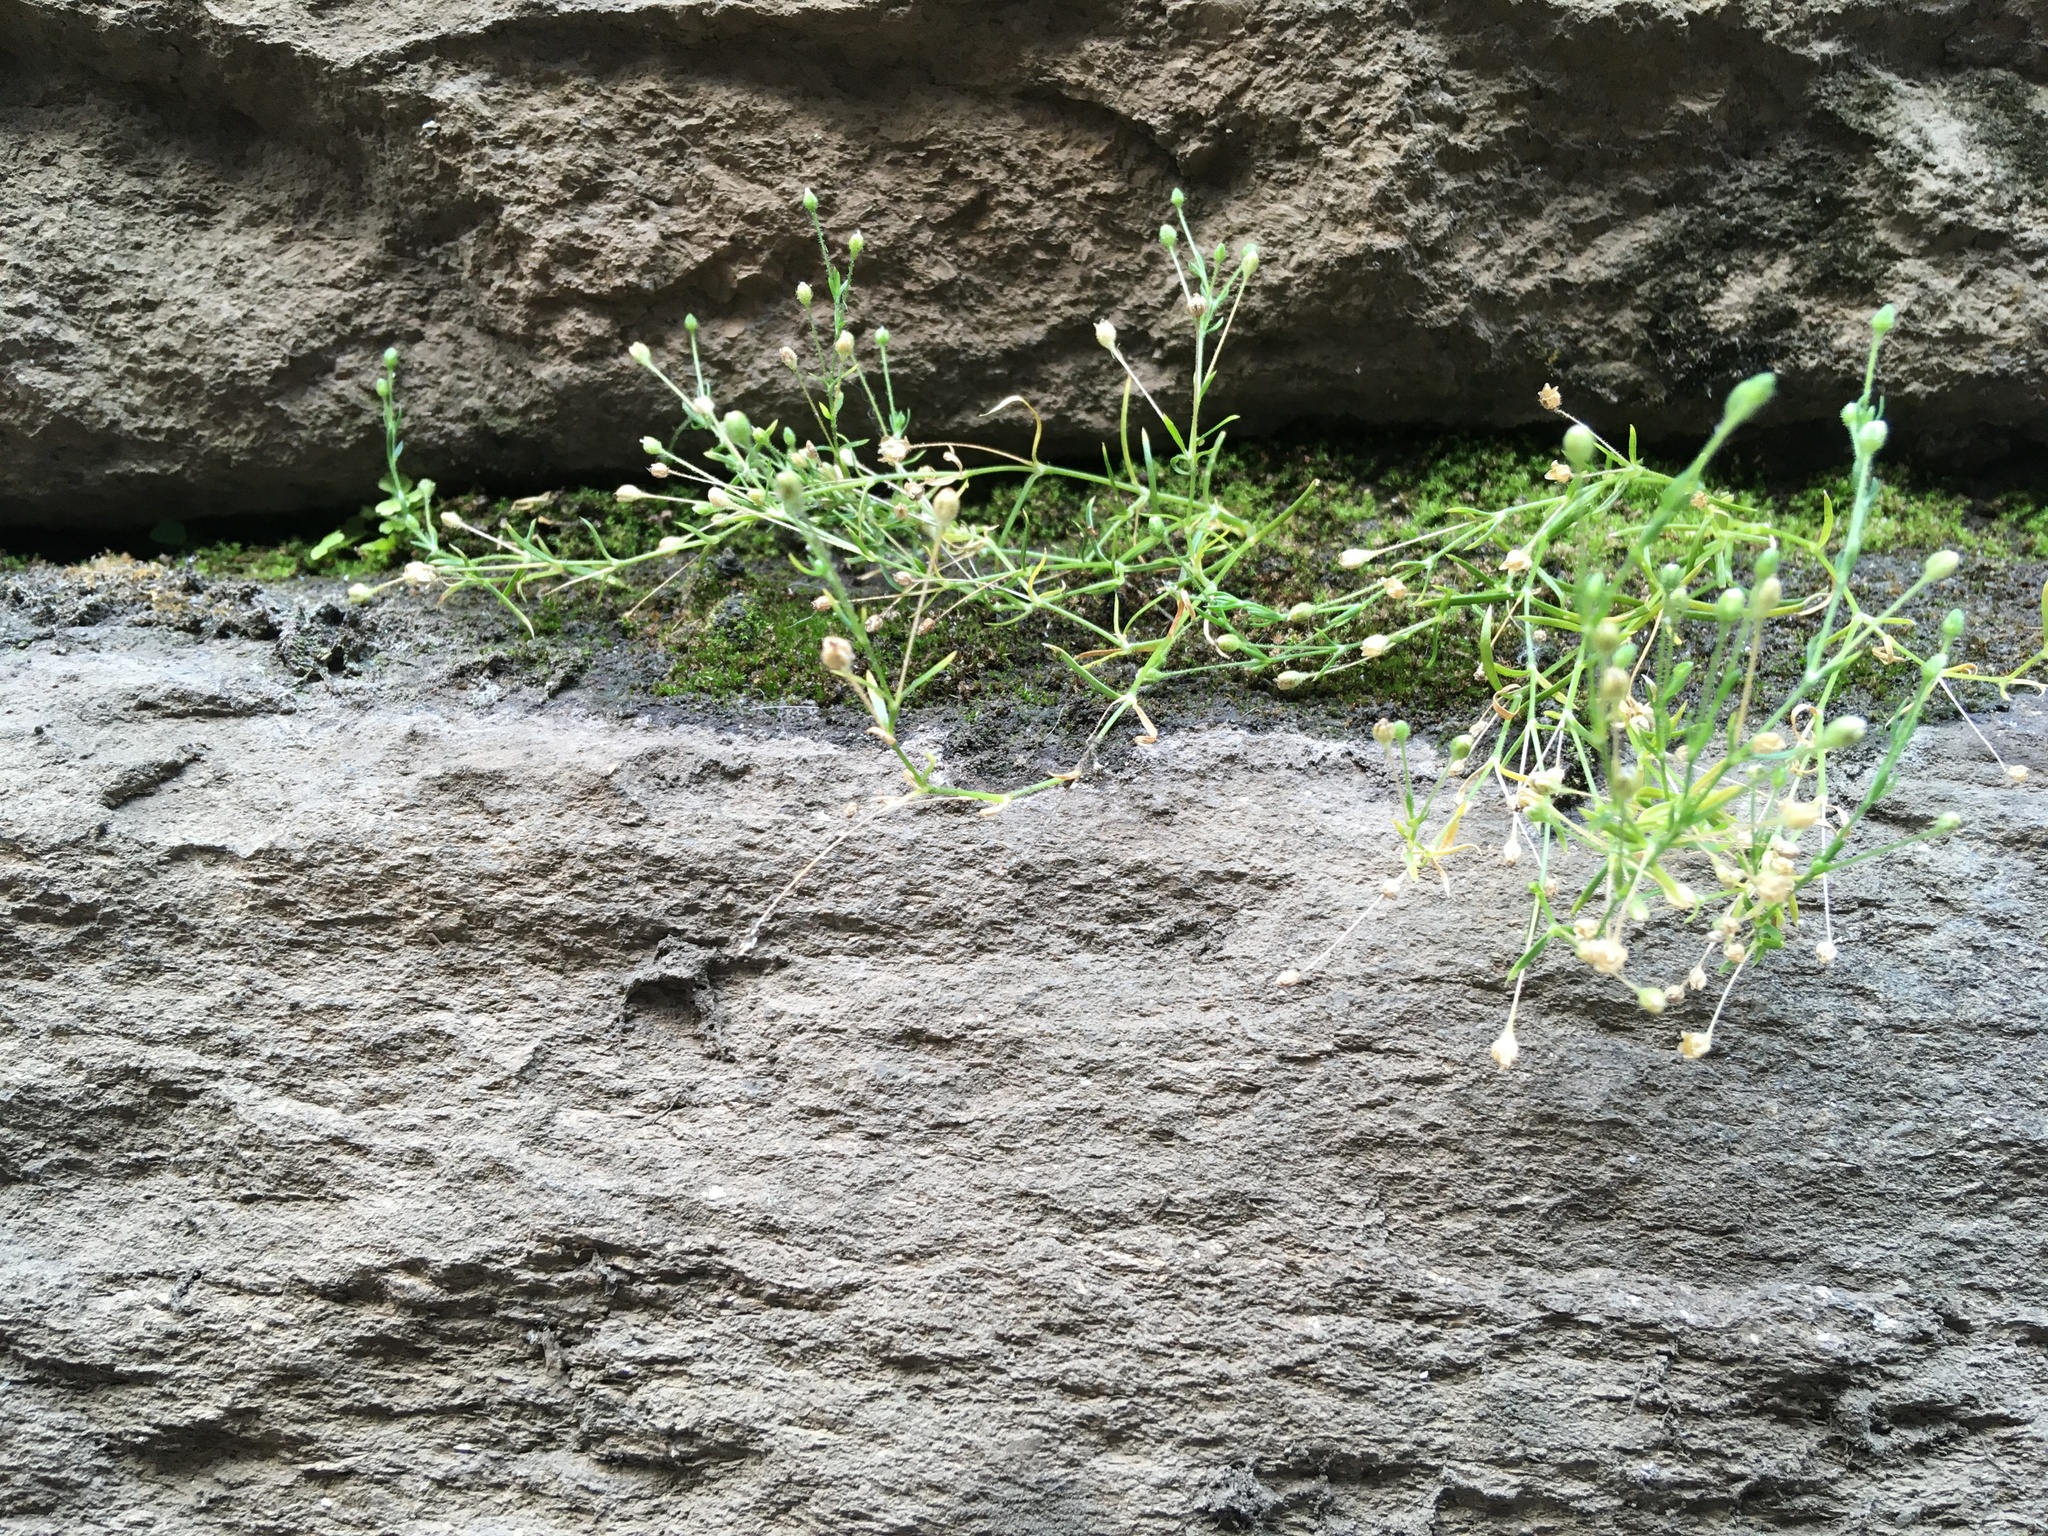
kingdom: Plantae
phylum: Tracheophyta
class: Magnoliopsida
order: Caryophyllales
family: Caryophyllaceae
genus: Sagina
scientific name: Sagina japonica
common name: Japanese pearlwort
